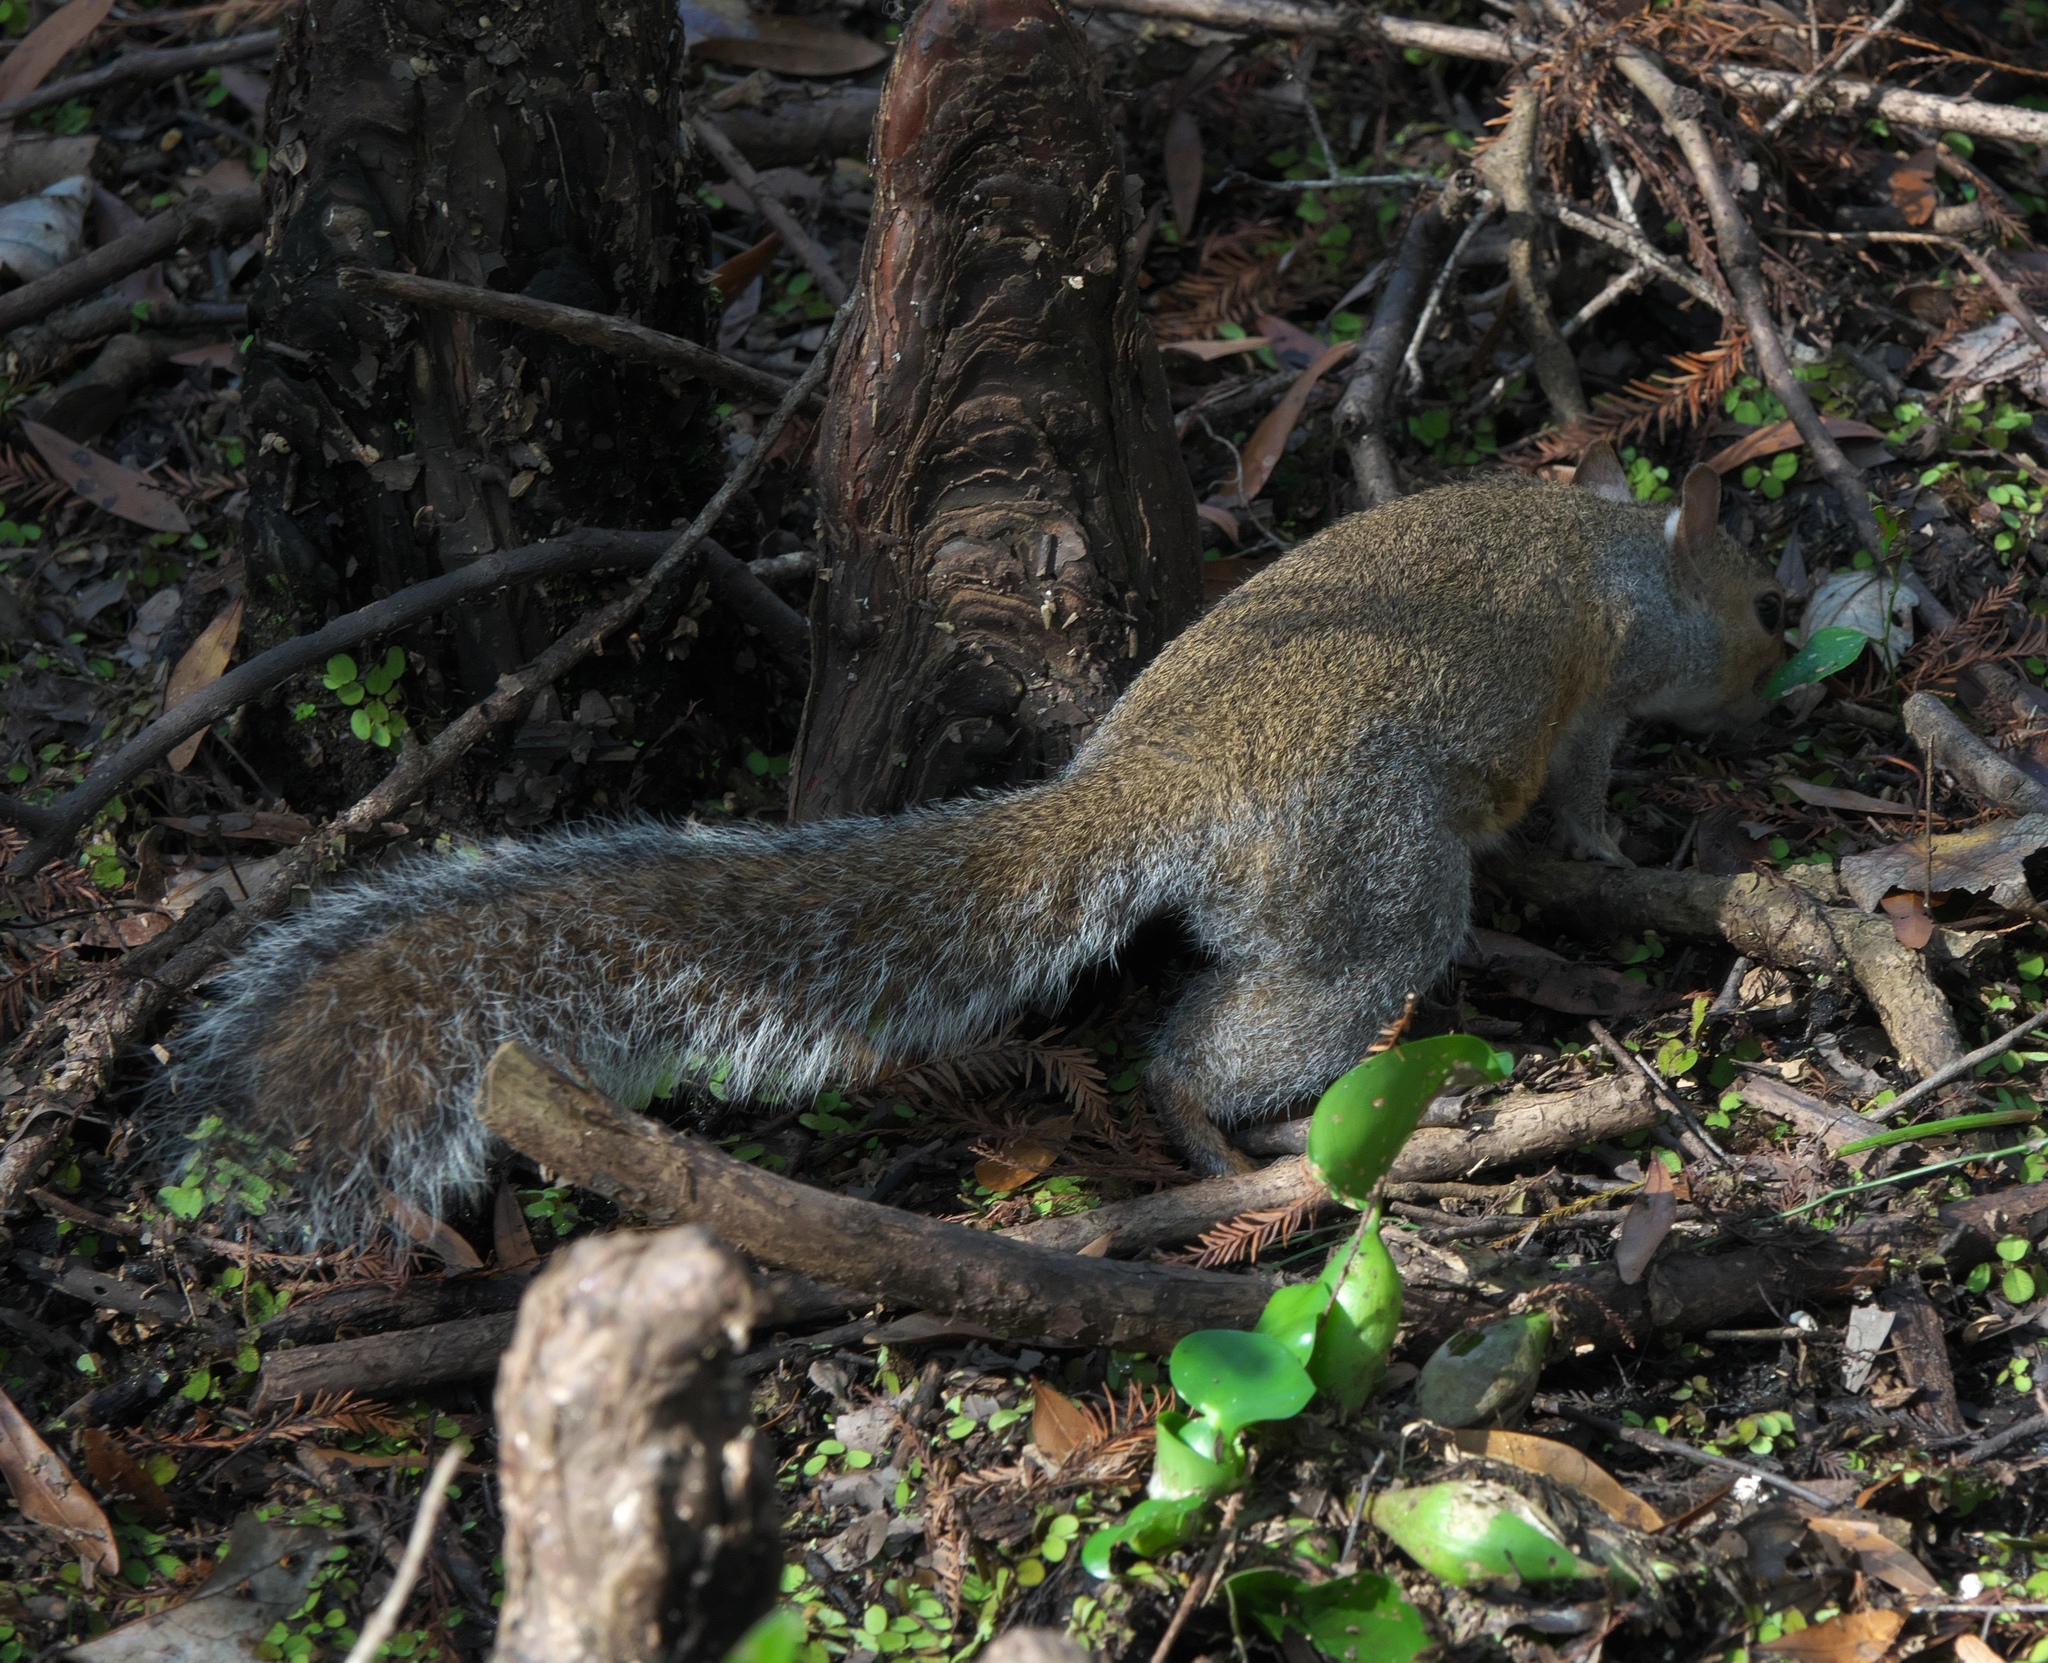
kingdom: Animalia
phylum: Chordata
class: Mammalia
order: Rodentia
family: Sciuridae
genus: Sciurus
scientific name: Sciurus carolinensis
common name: Eastern gray squirrel
